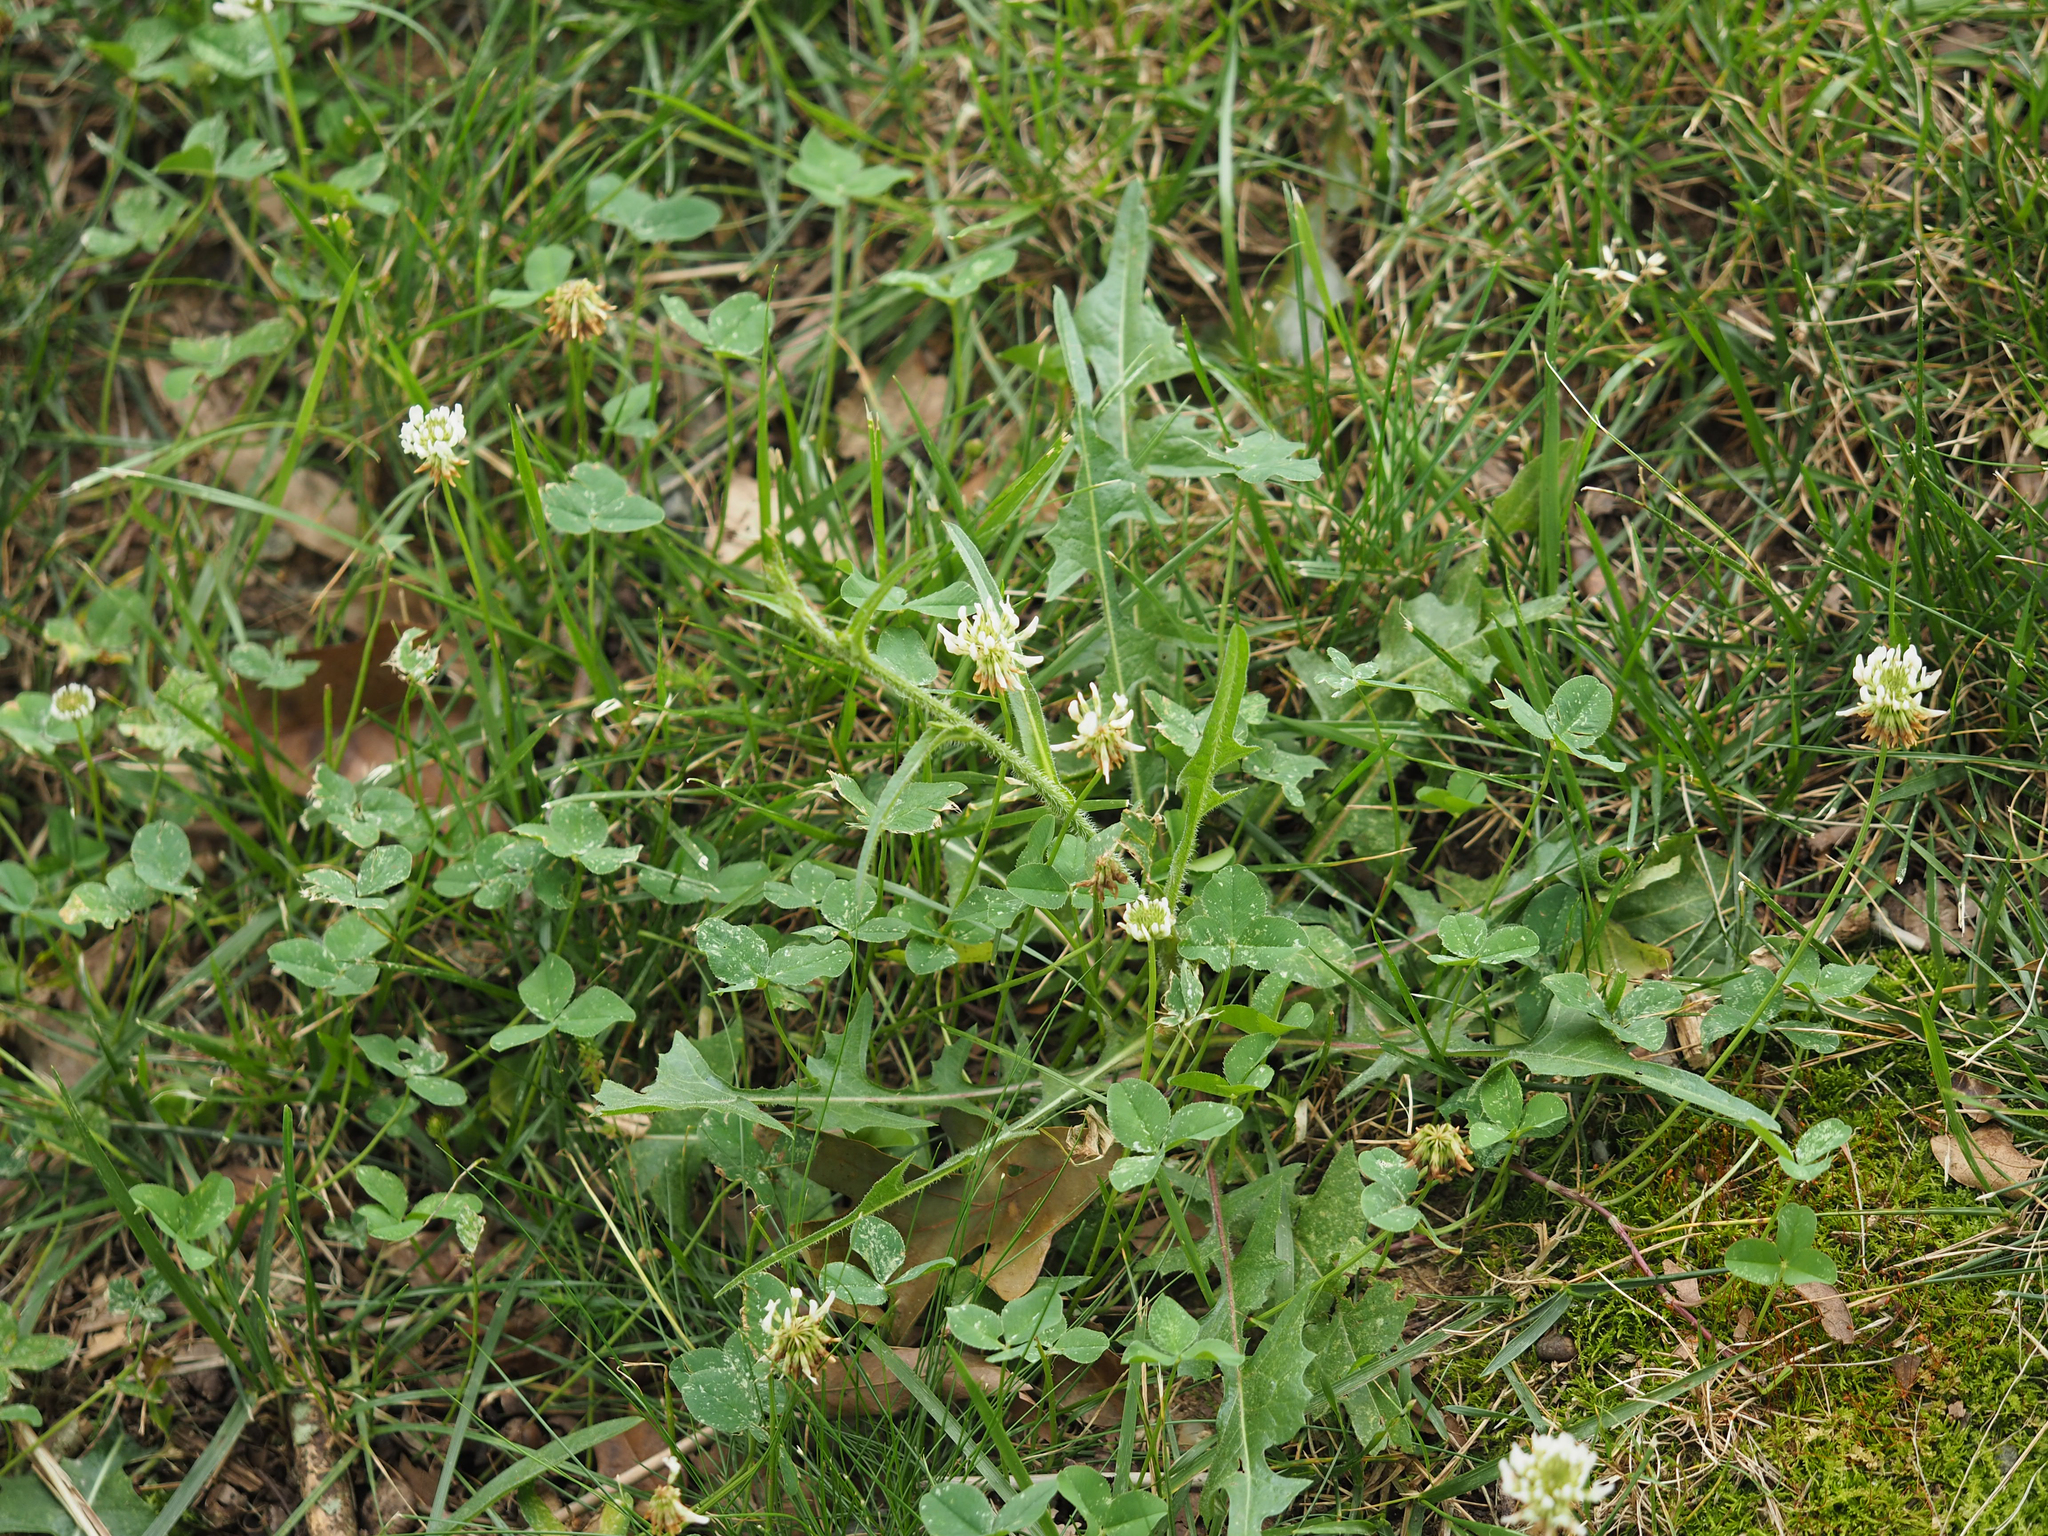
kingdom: Plantae
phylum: Tracheophyta
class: Magnoliopsida
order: Fabales
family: Fabaceae
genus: Trifolium
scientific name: Trifolium repens
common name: White clover
